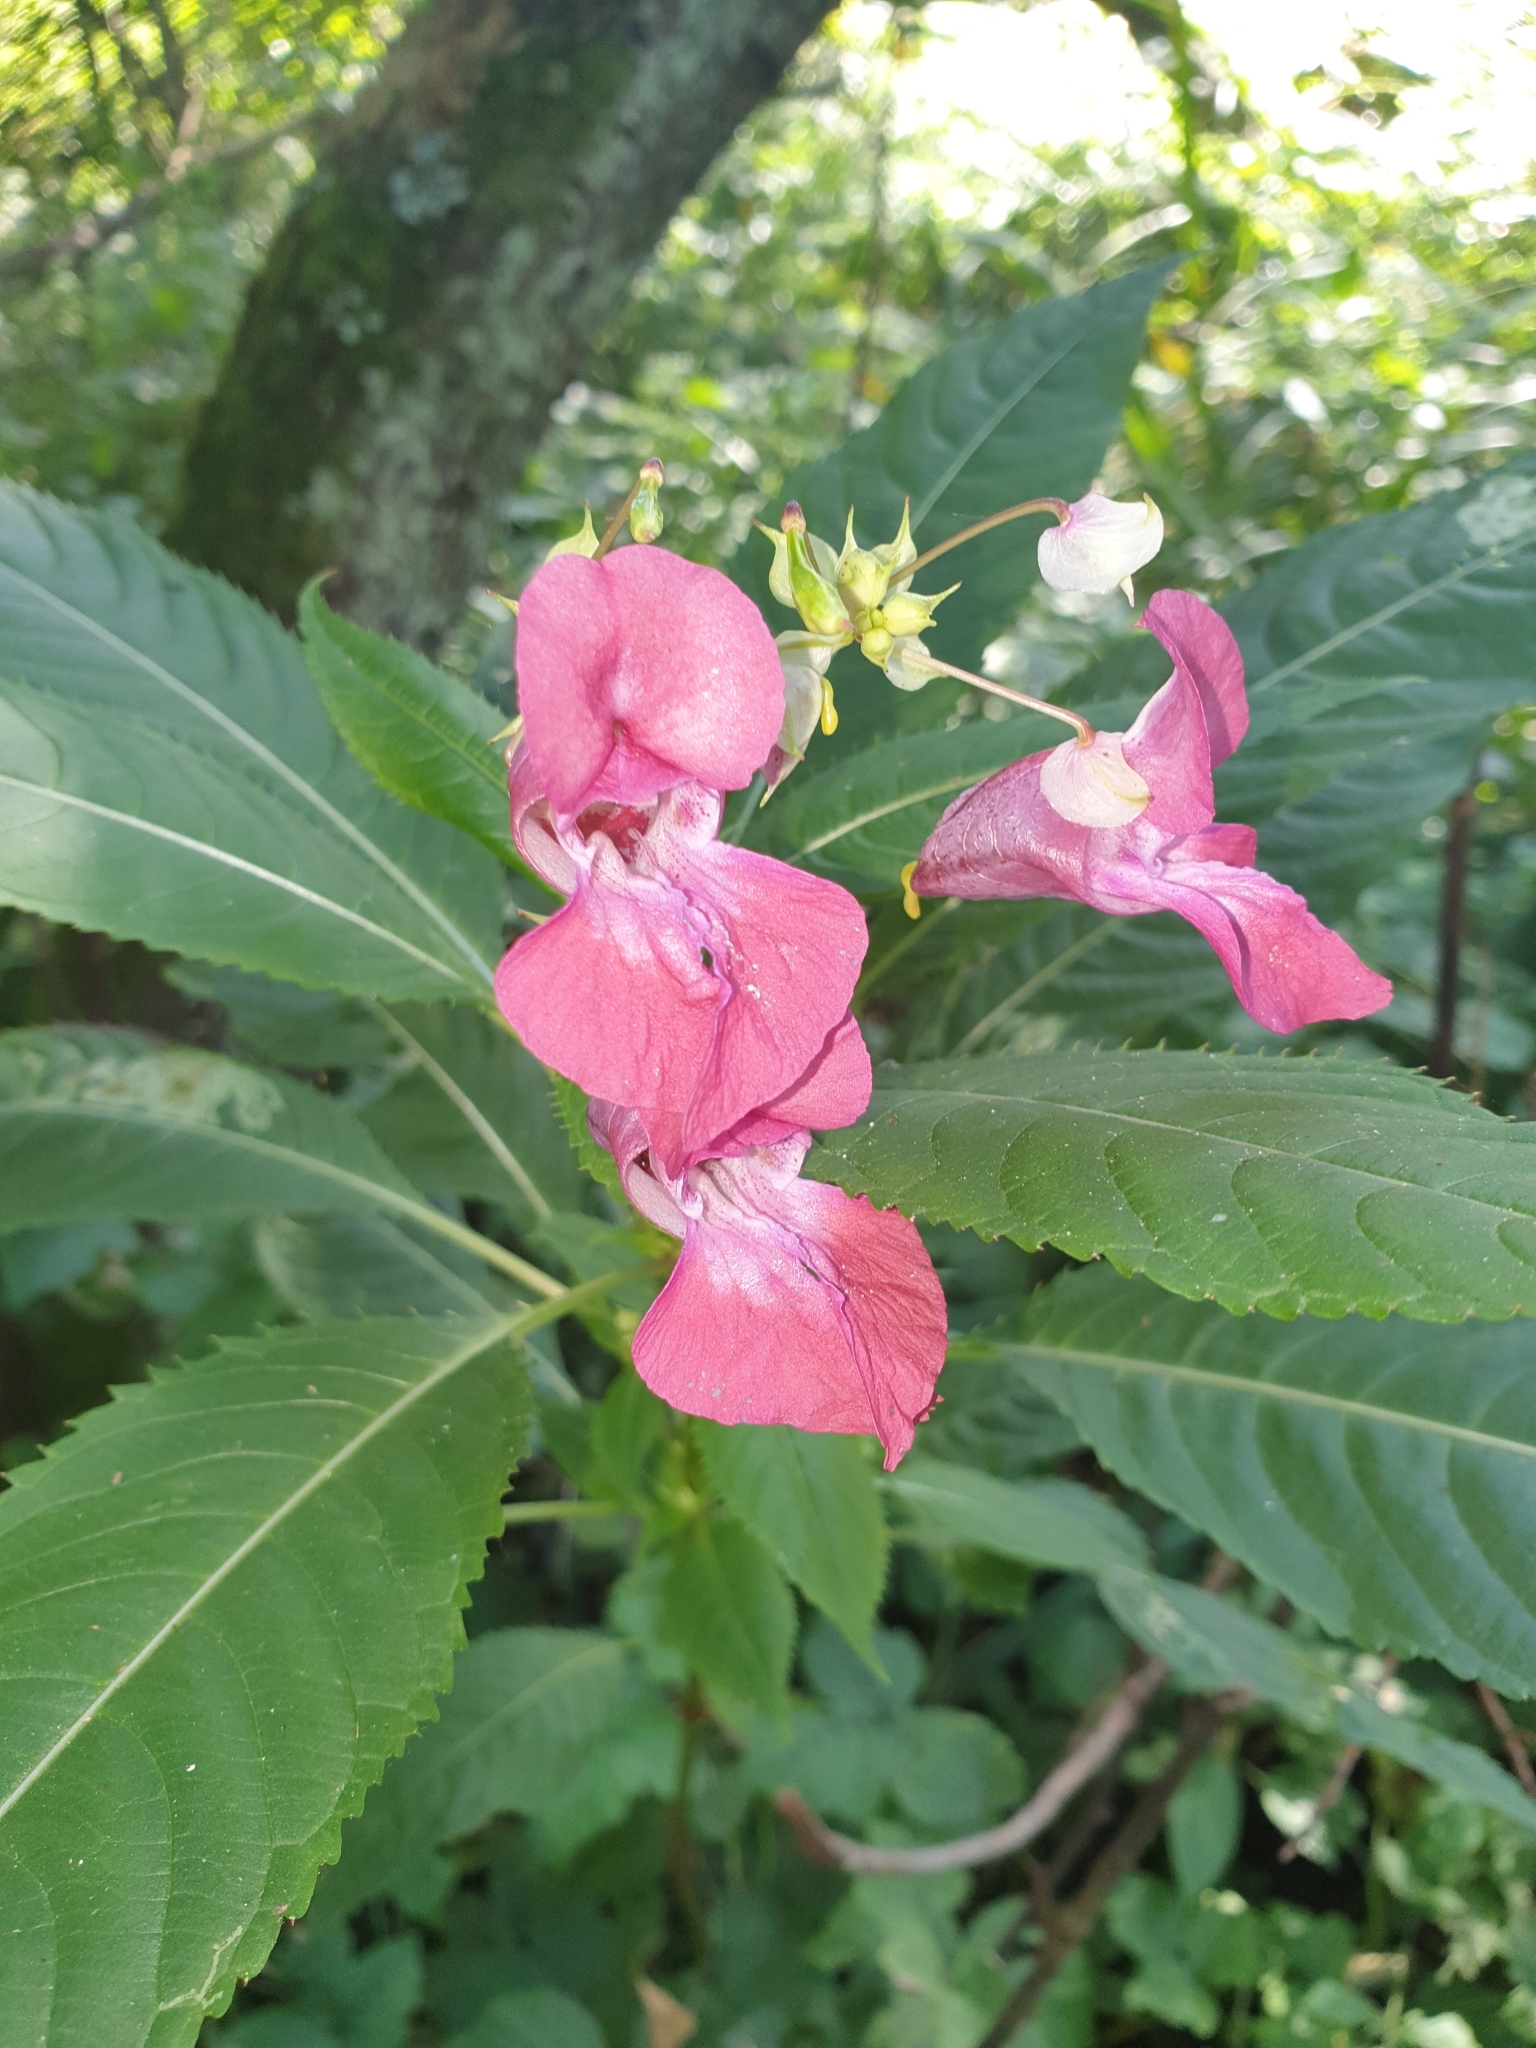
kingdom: Plantae
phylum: Tracheophyta
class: Magnoliopsida
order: Ericales
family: Balsaminaceae
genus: Impatiens
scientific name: Impatiens glandulifera
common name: Himalayan balsam
